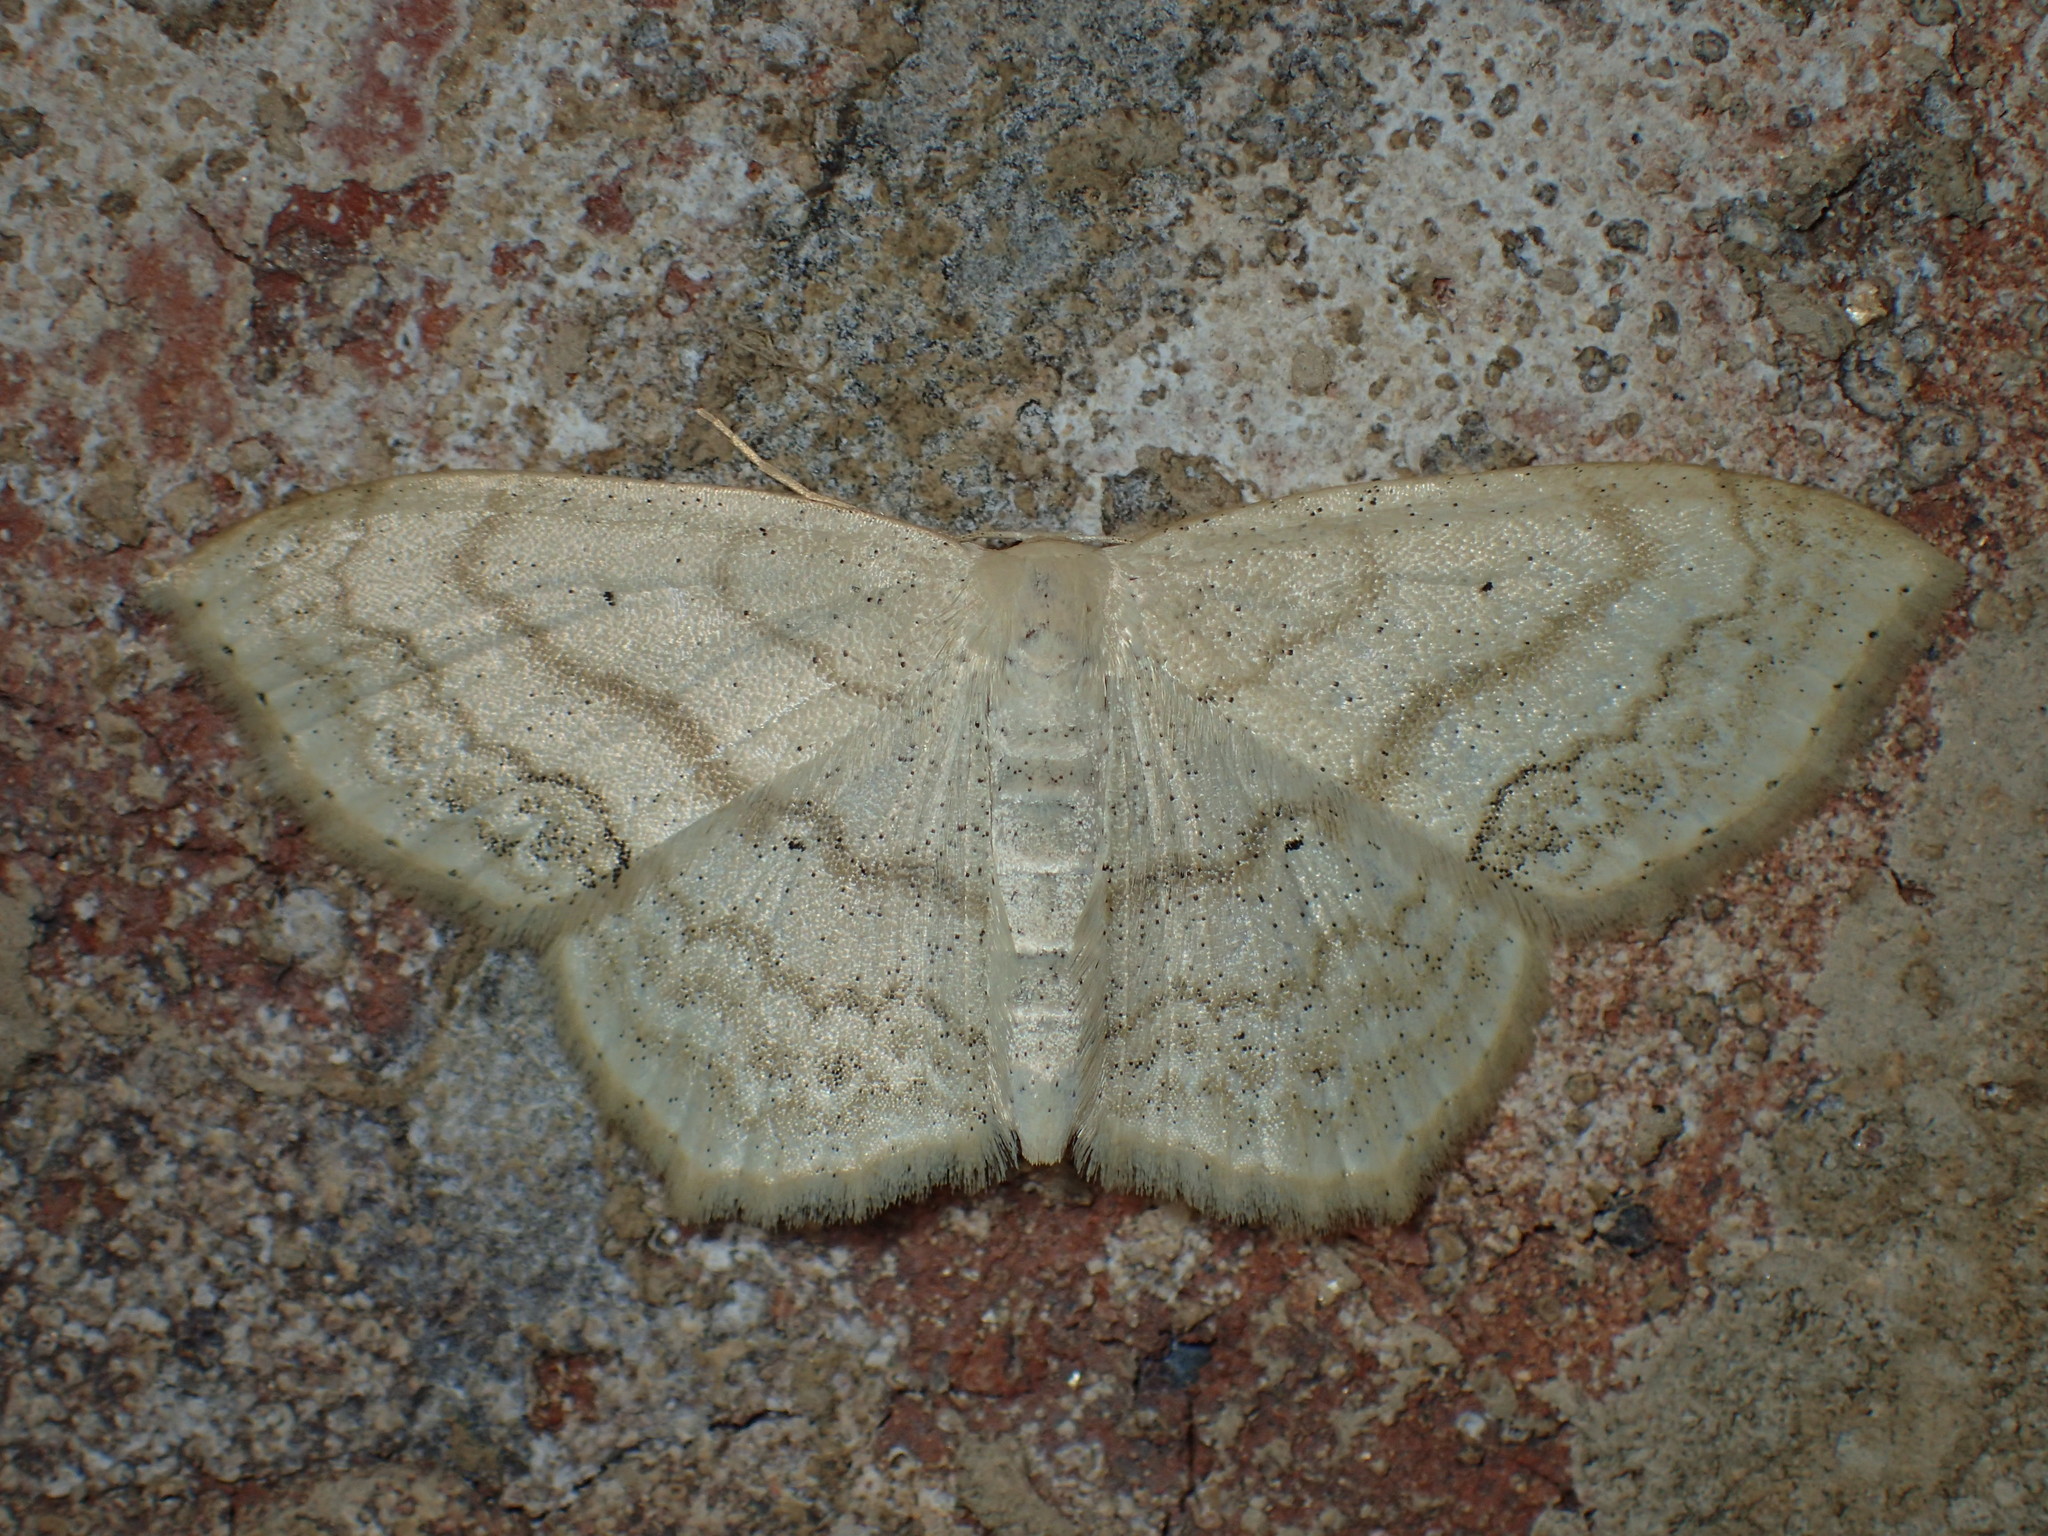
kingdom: Animalia
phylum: Arthropoda
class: Insecta
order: Lepidoptera
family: Geometridae
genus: Scopula
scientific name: Scopula limboundata
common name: Large lace border
